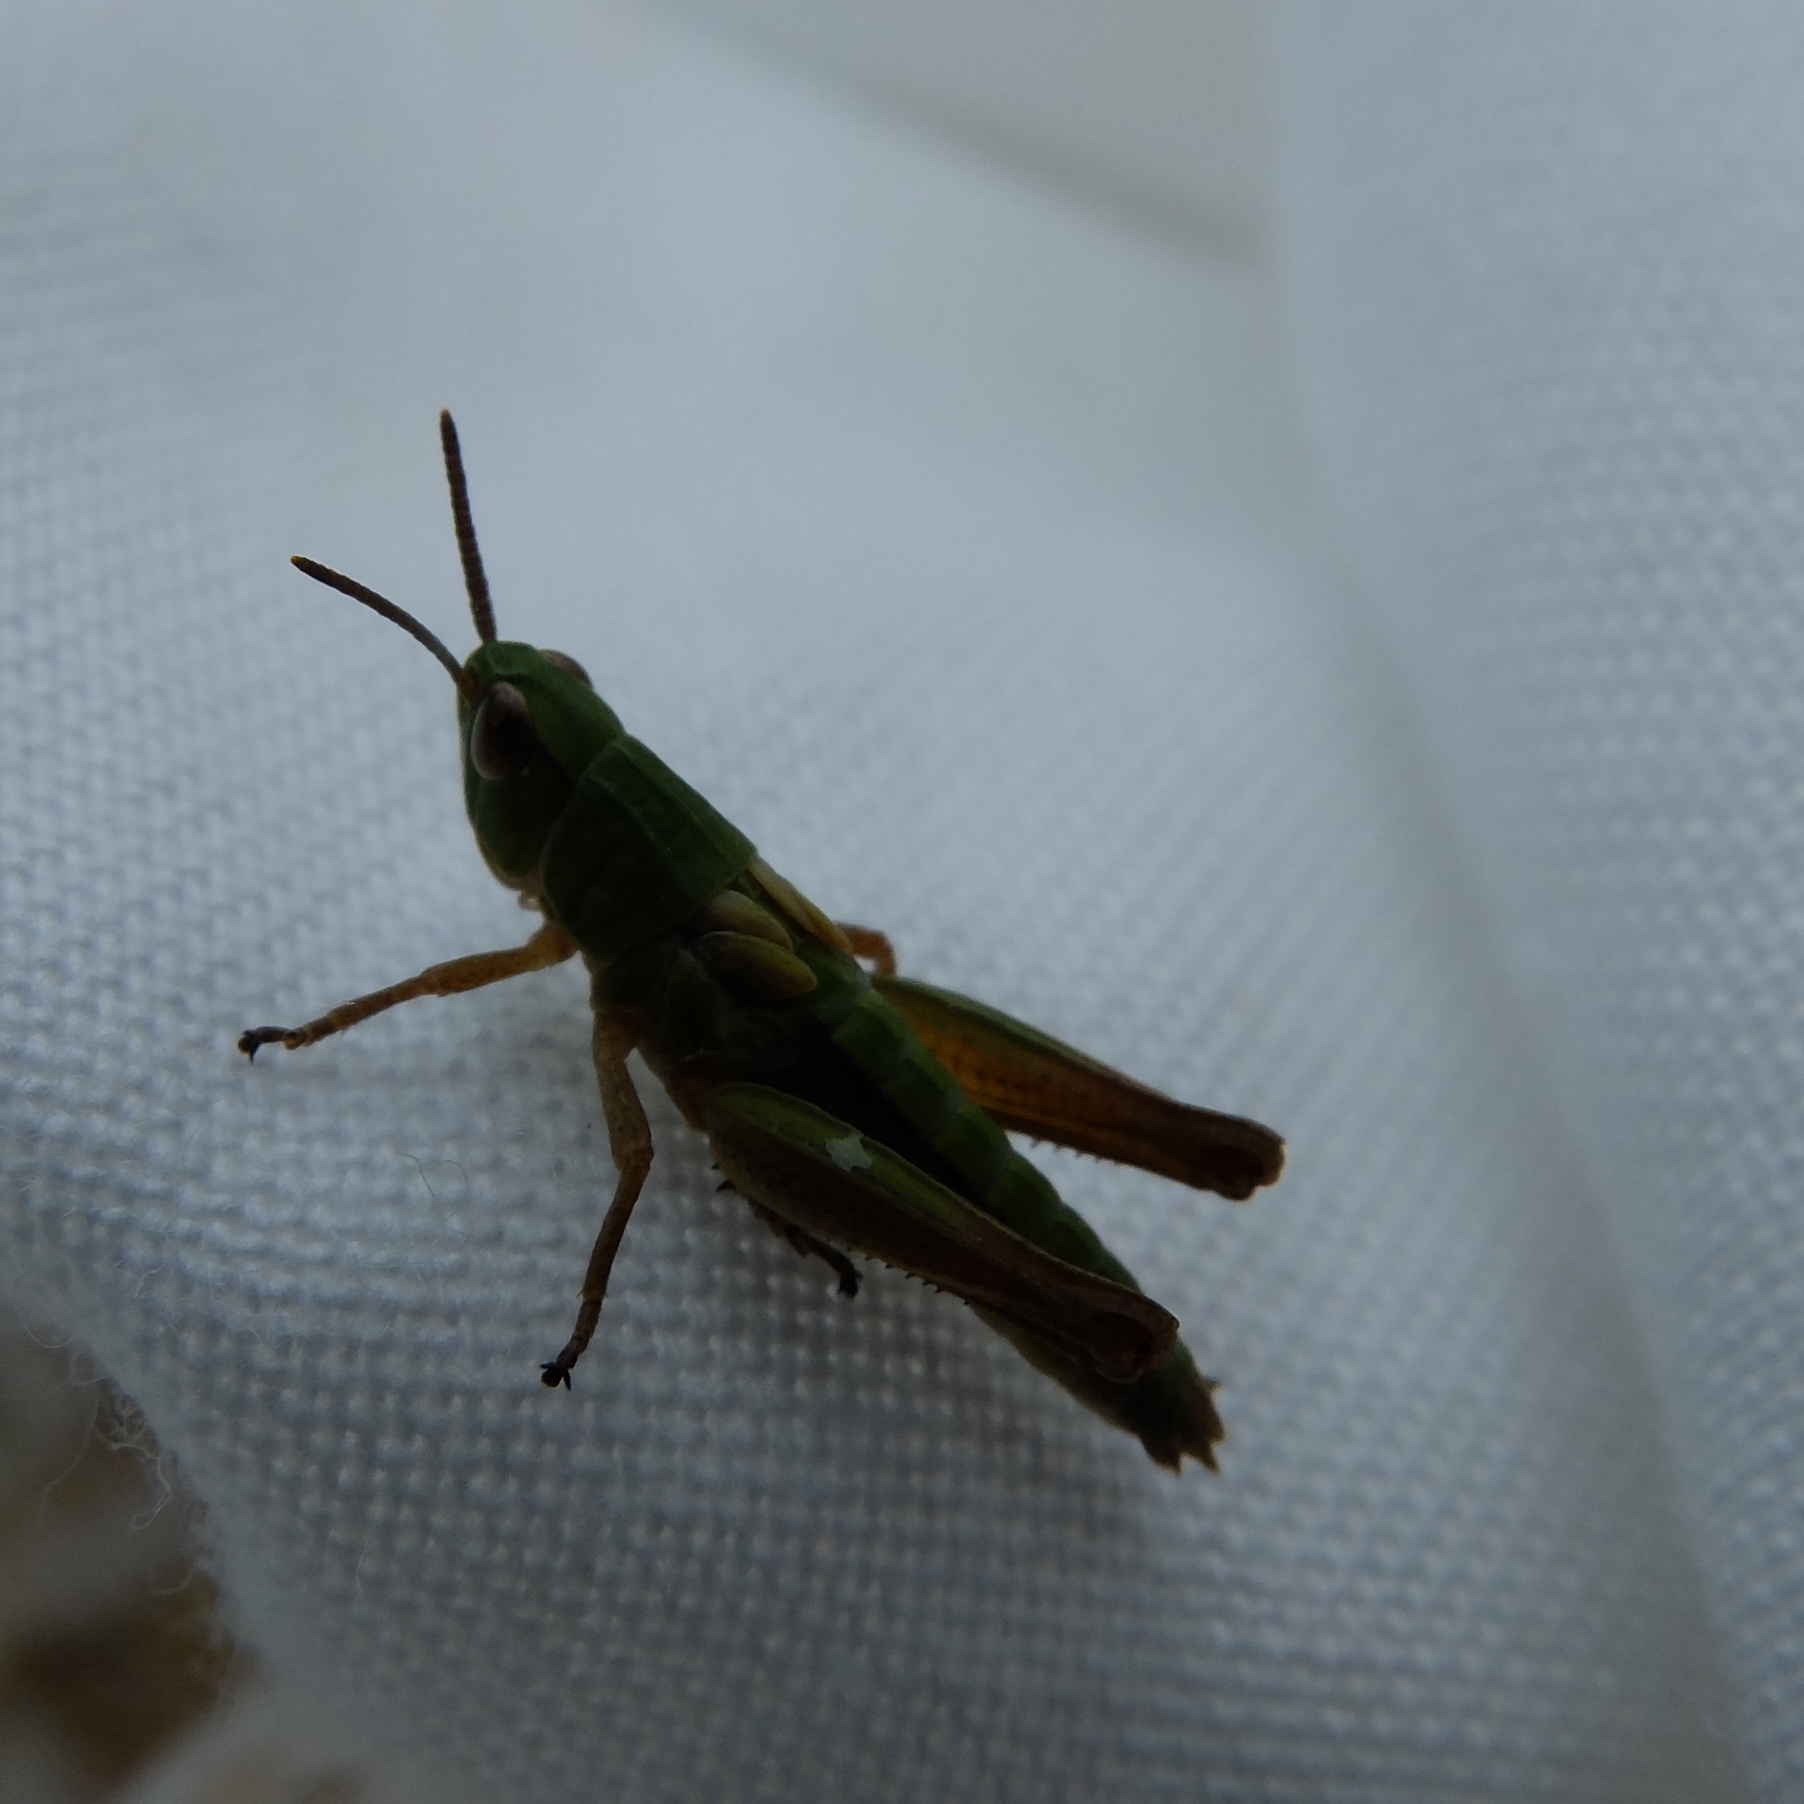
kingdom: Animalia
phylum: Arthropoda
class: Insecta
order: Orthoptera
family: Acrididae
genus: Pseudochorthippus
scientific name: Pseudochorthippus parallelus
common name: Meadow grasshopper
